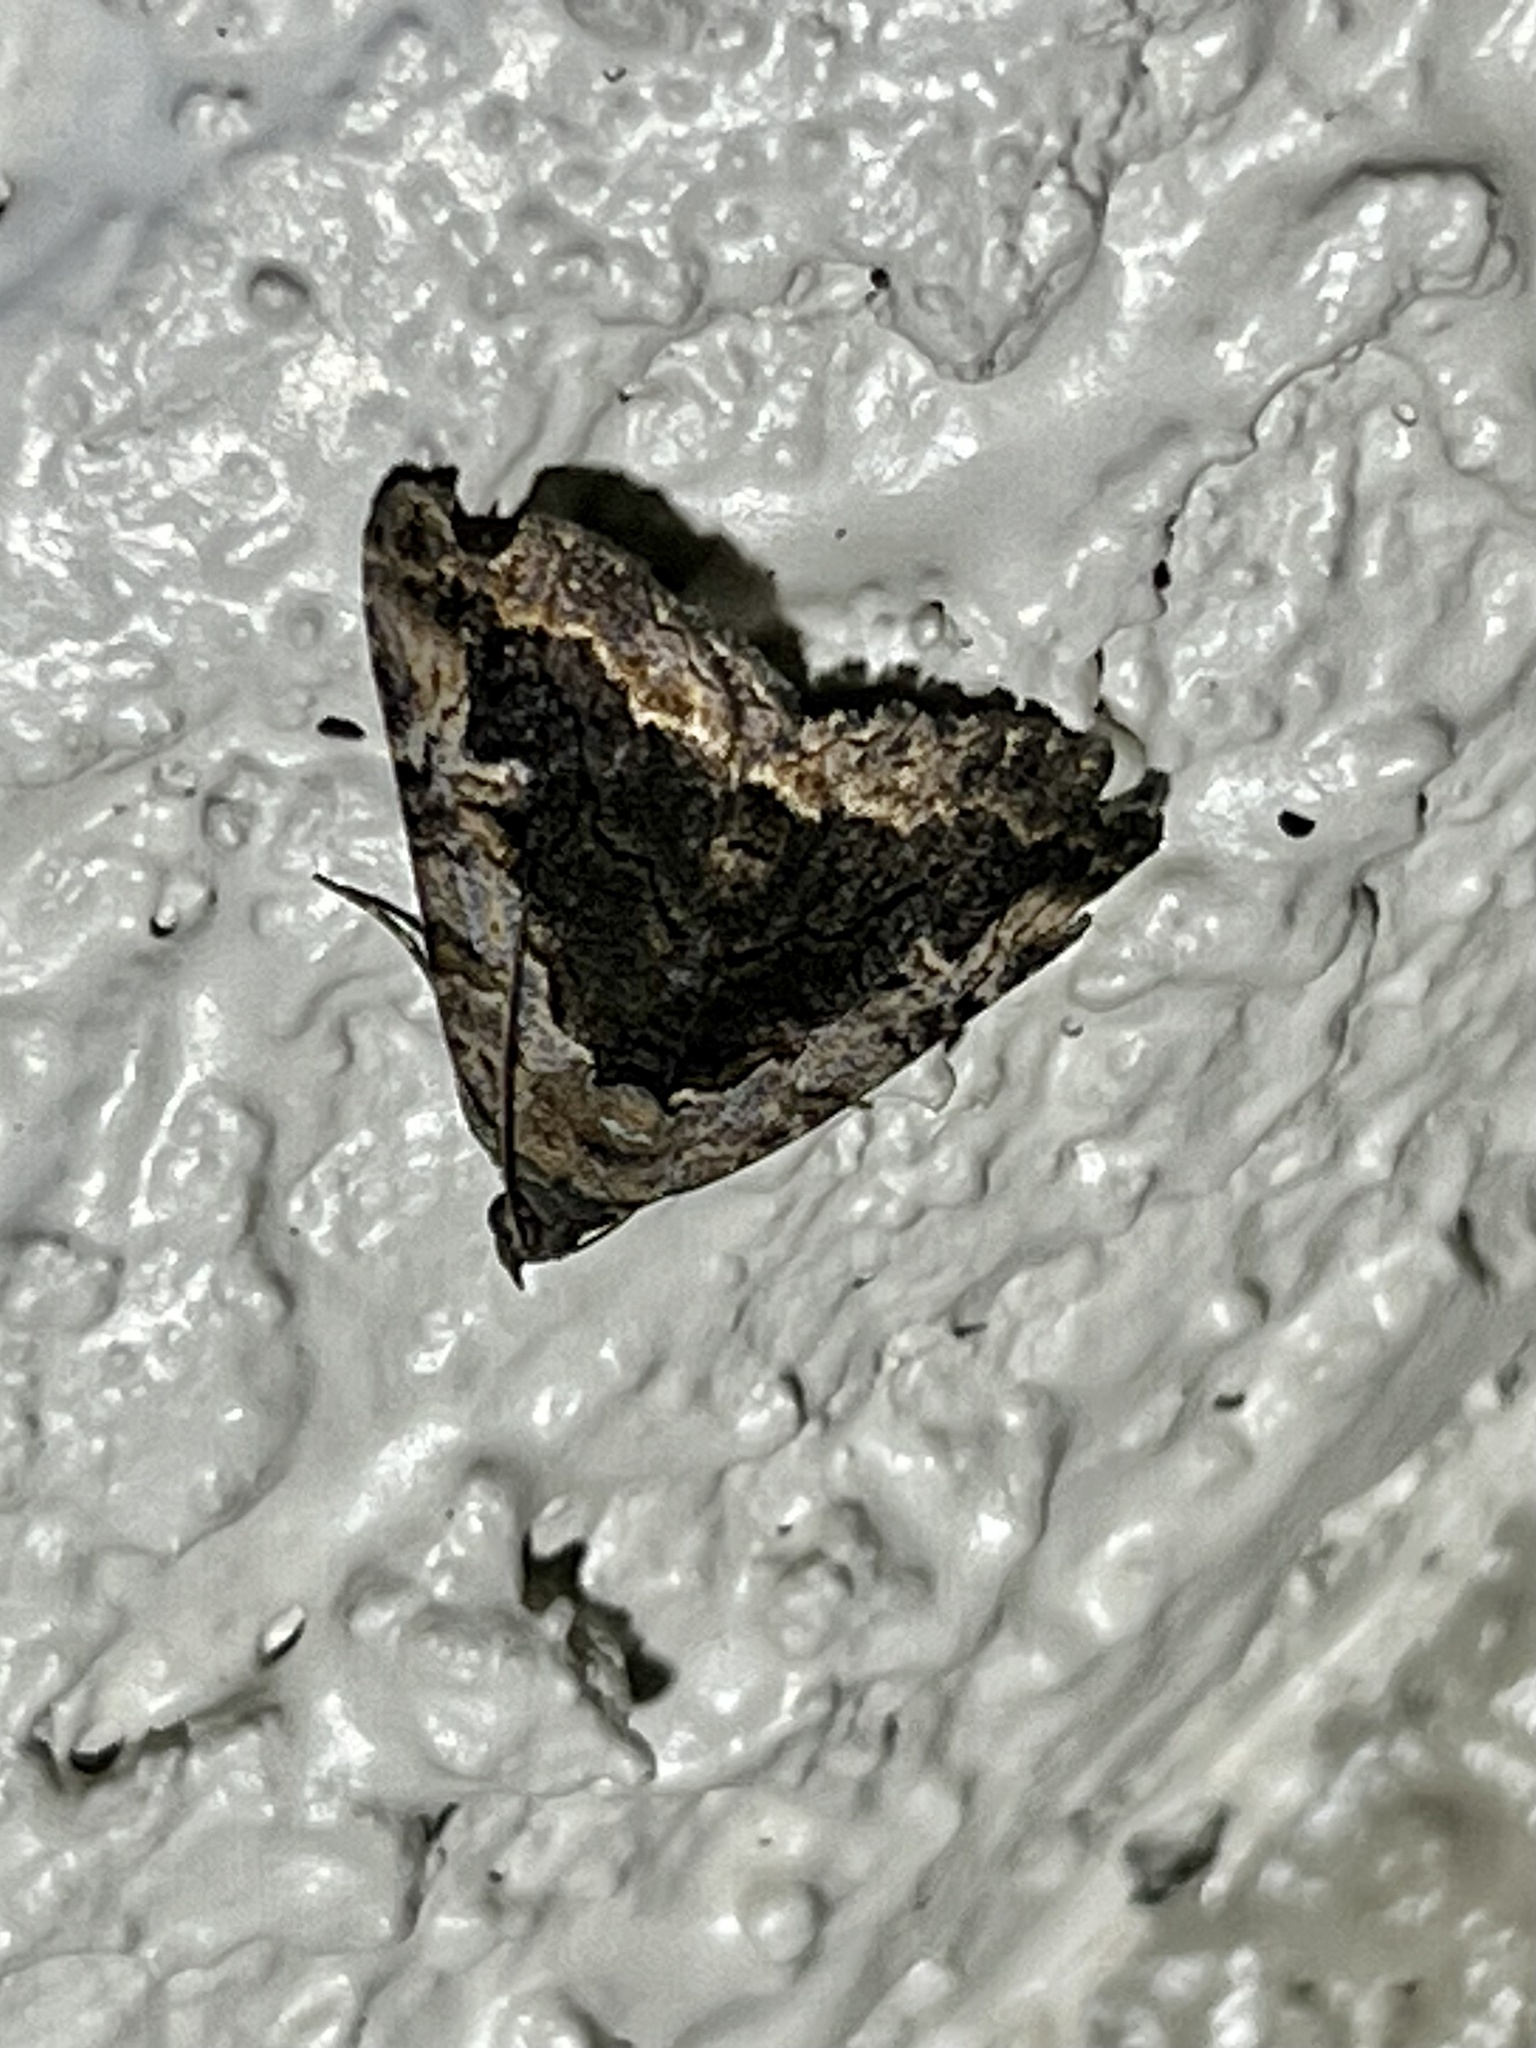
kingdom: Animalia
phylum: Arthropoda
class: Insecta
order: Lepidoptera
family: Erebidae
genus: Zaleops
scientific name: Zaleops umbrina
